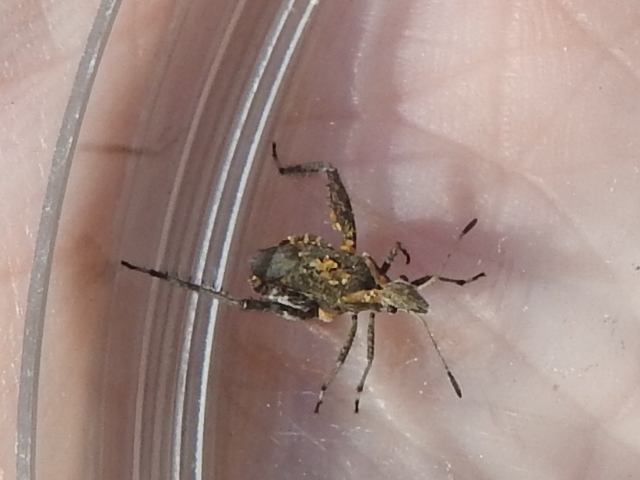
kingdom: Animalia
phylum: Arthropoda
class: Insecta
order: Hemiptera
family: Alydidae
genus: Stachyocnemus
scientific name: Stachyocnemus apicalis
